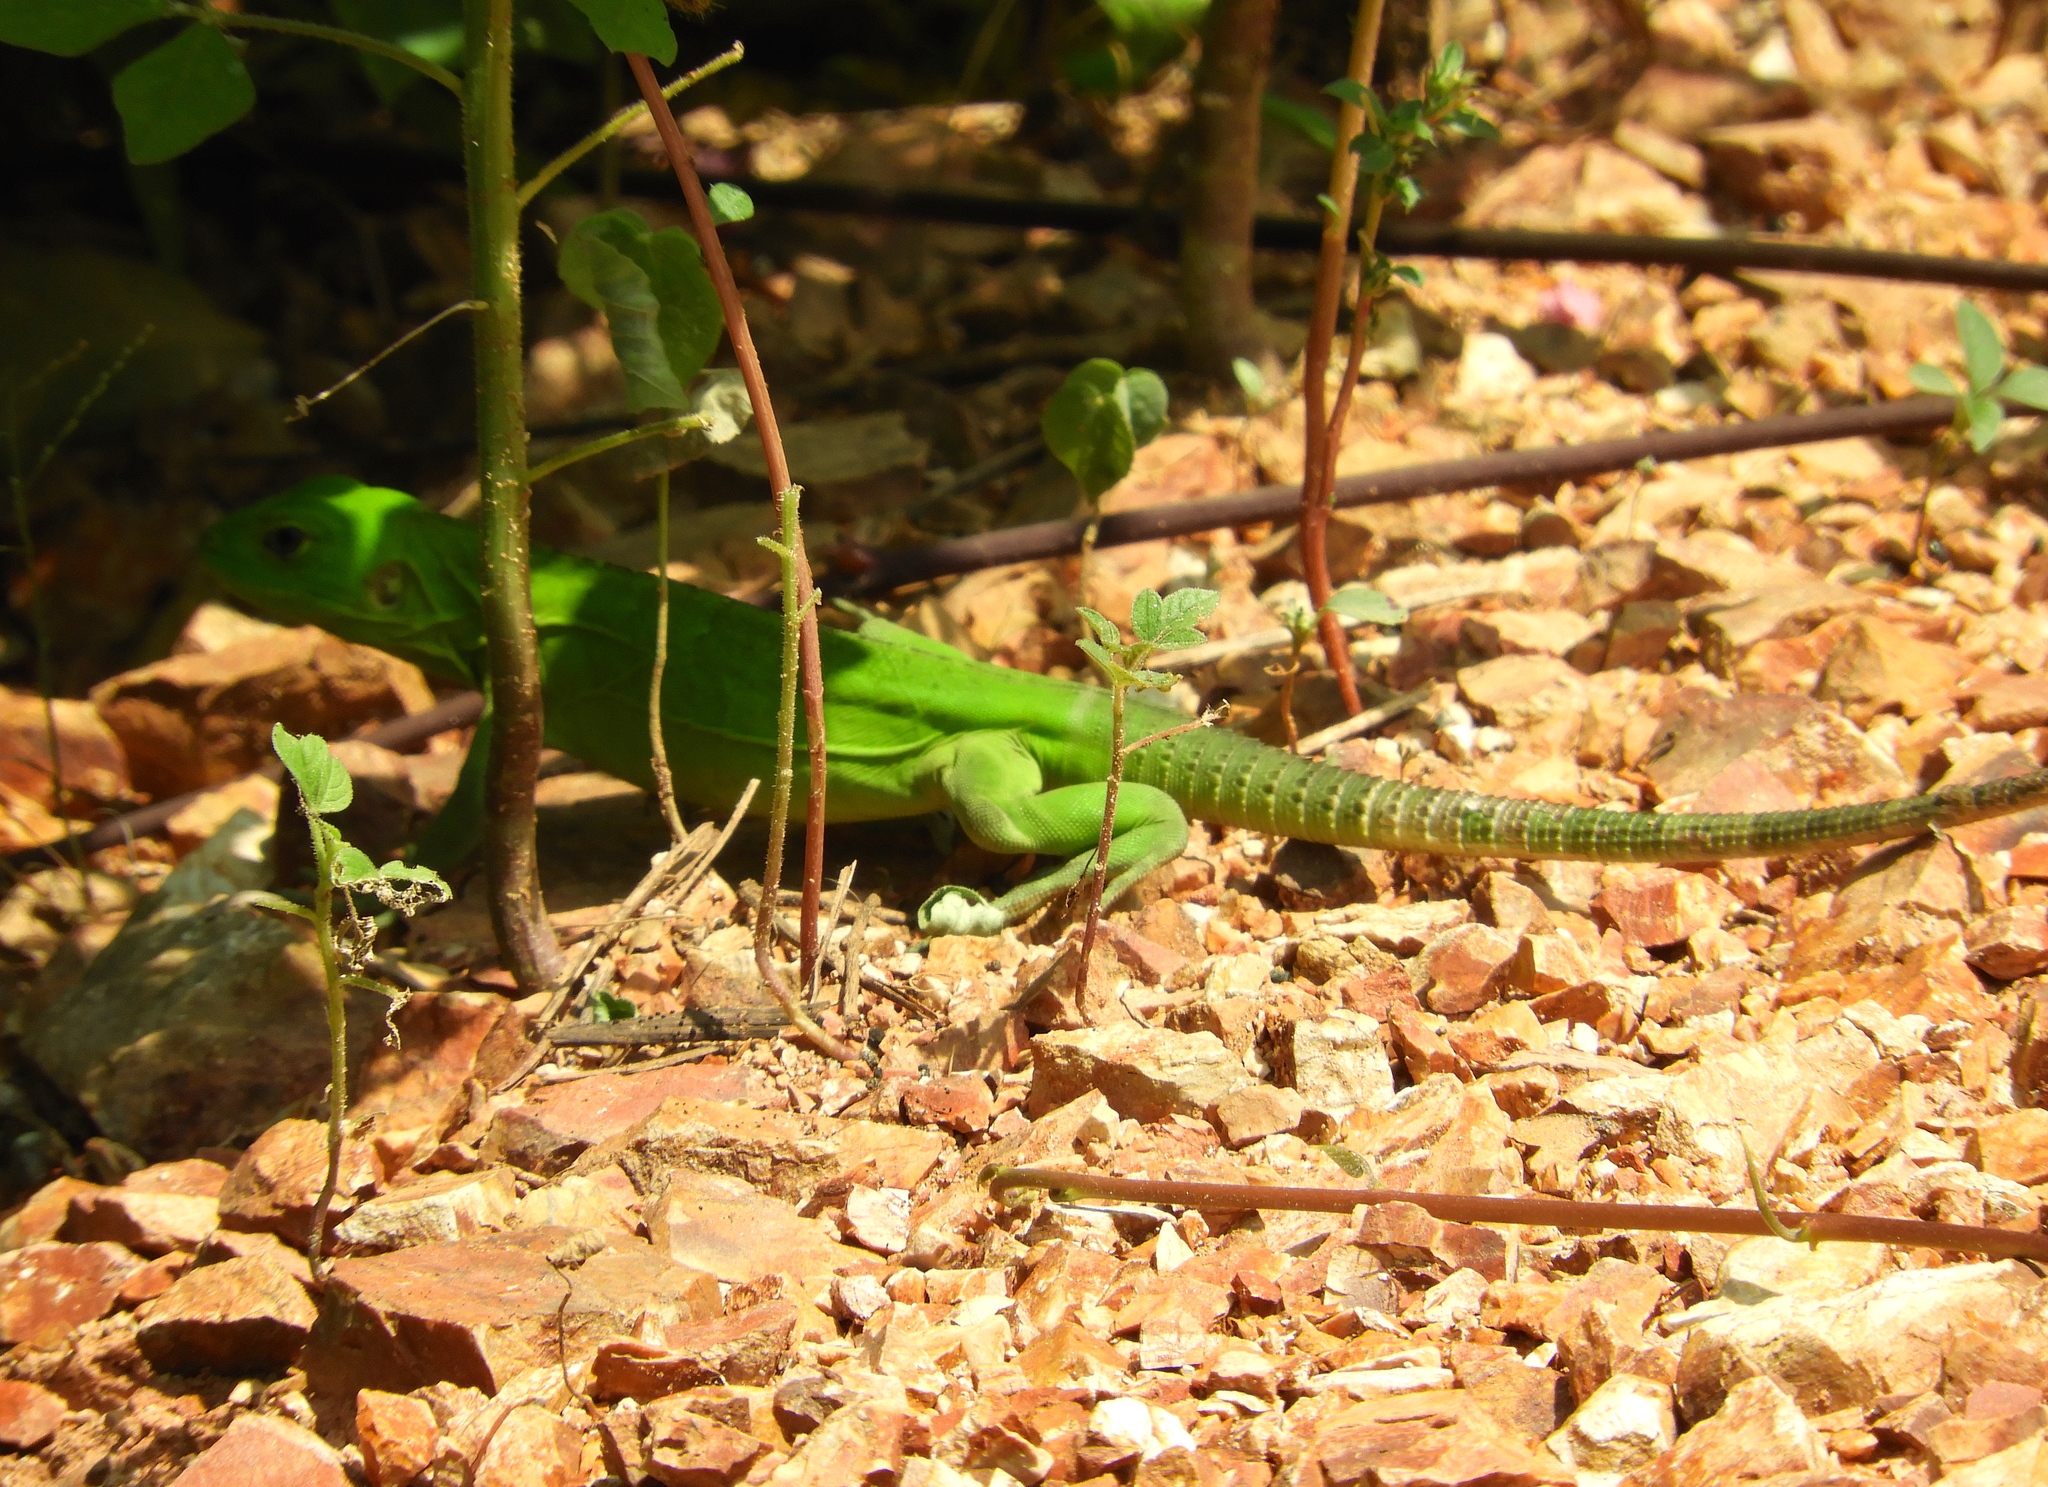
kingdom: Animalia
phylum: Chordata
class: Squamata
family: Iguanidae
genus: Ctenosaura
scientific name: Ctenosaura pectinata
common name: Guerreran spiny-tailed iguana
